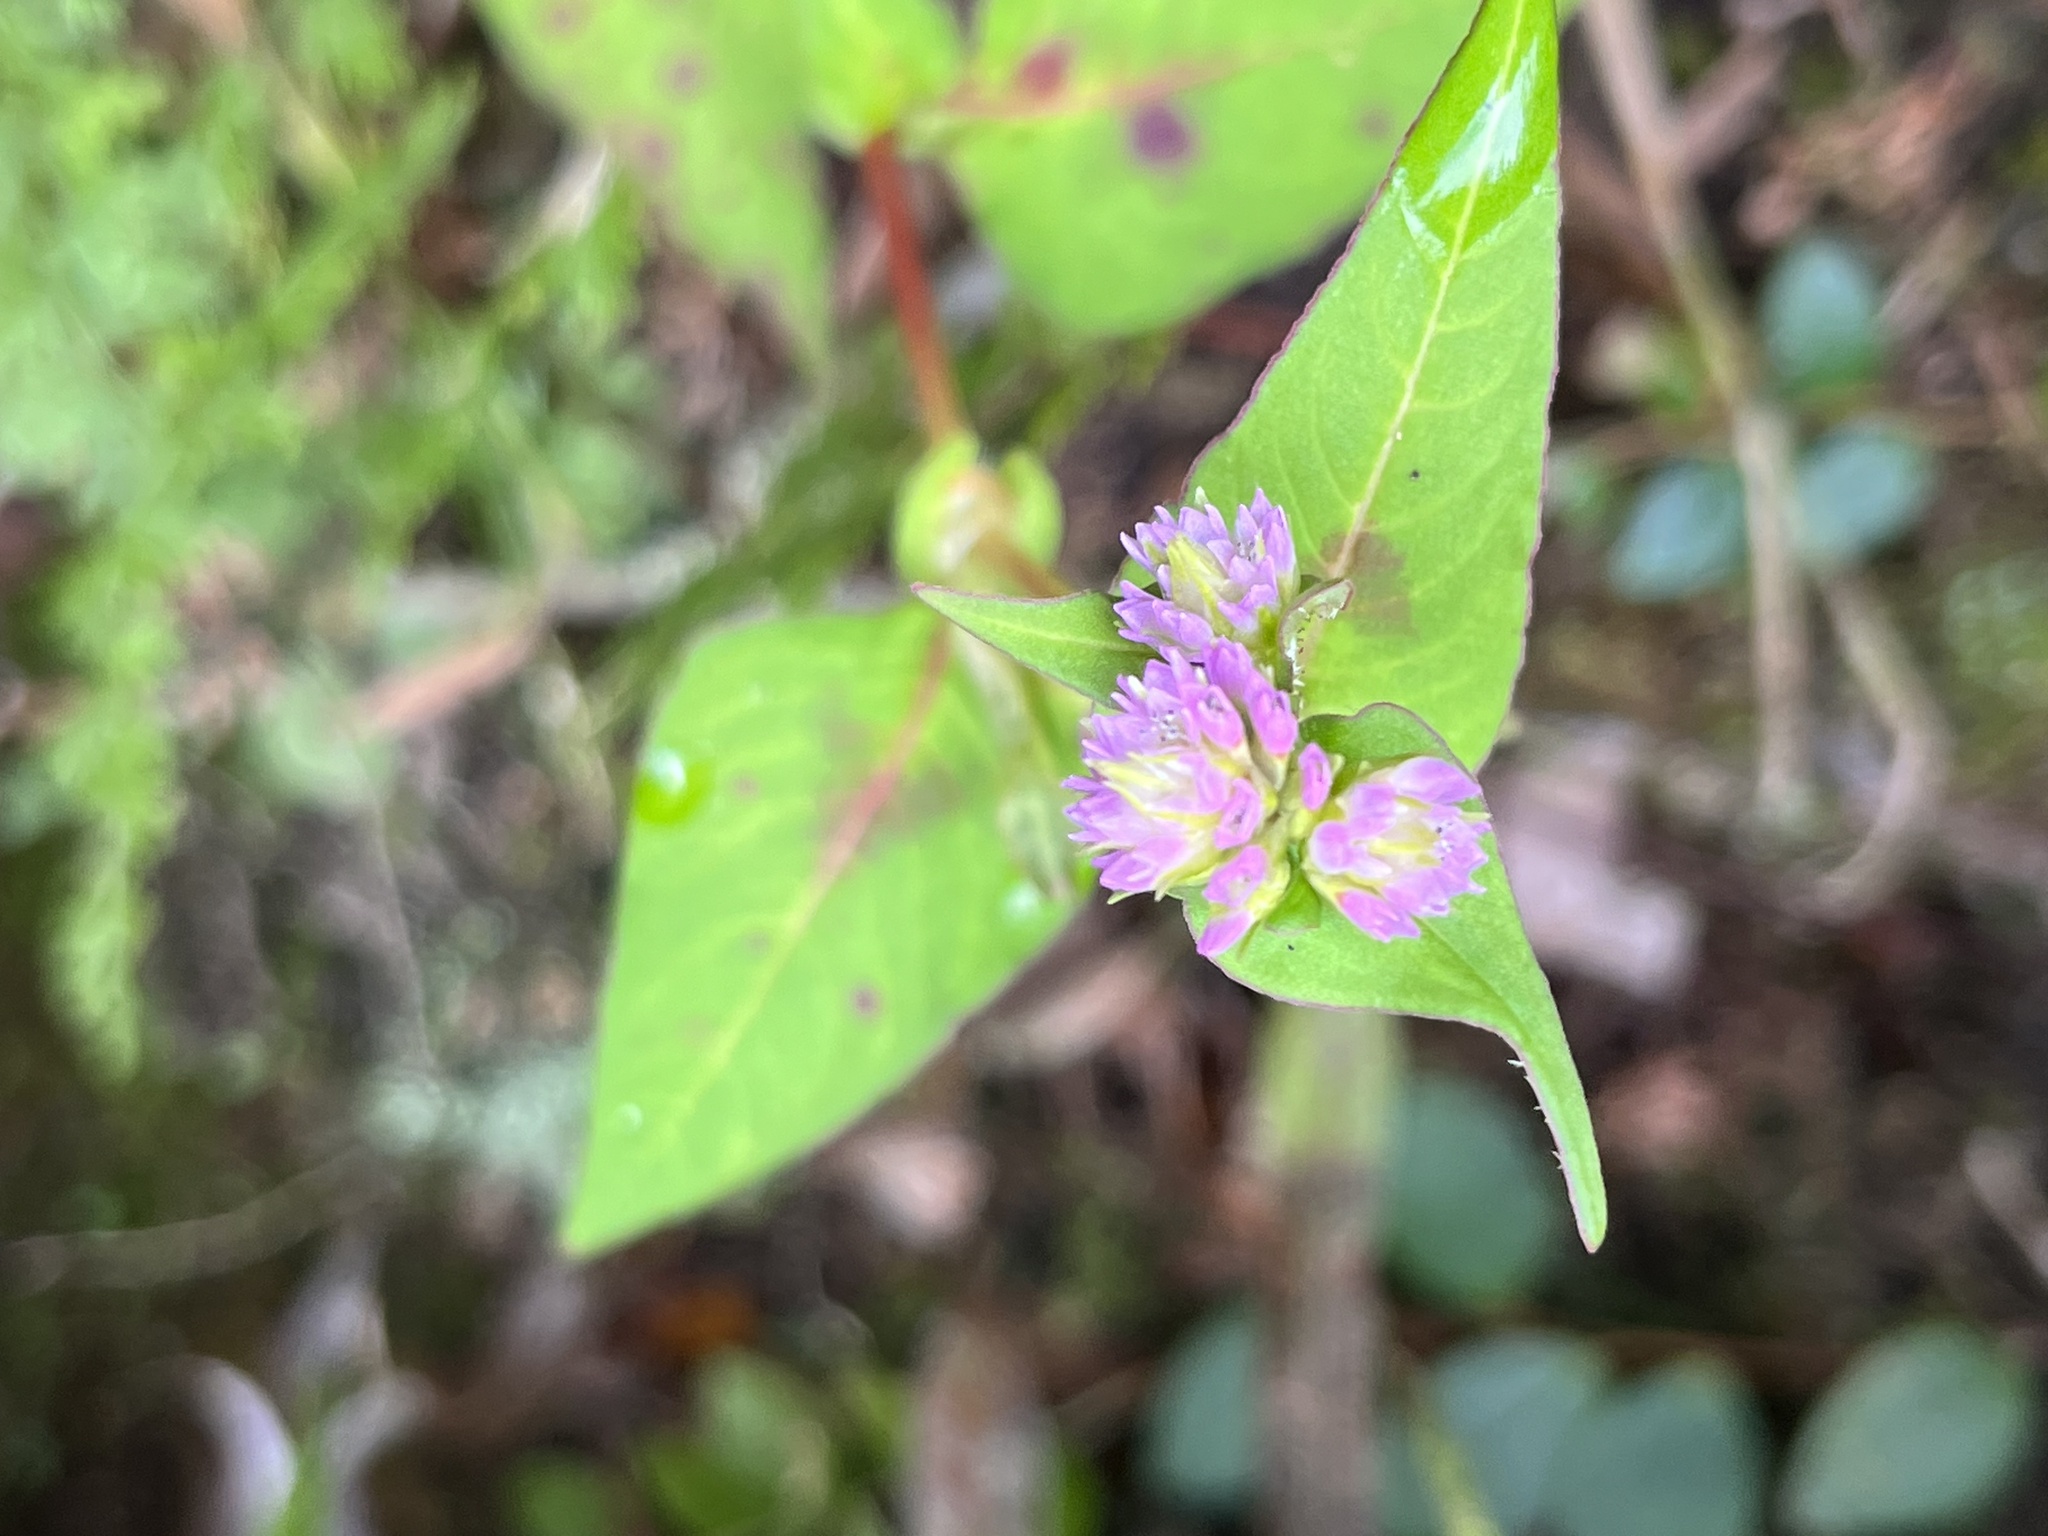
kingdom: Plantae
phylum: Tracheophyta
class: Magnoliopsida
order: Caryophyllales
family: Polygonaceae
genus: Persicaria
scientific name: Persicaria nepalensis
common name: Nepal persicaria
